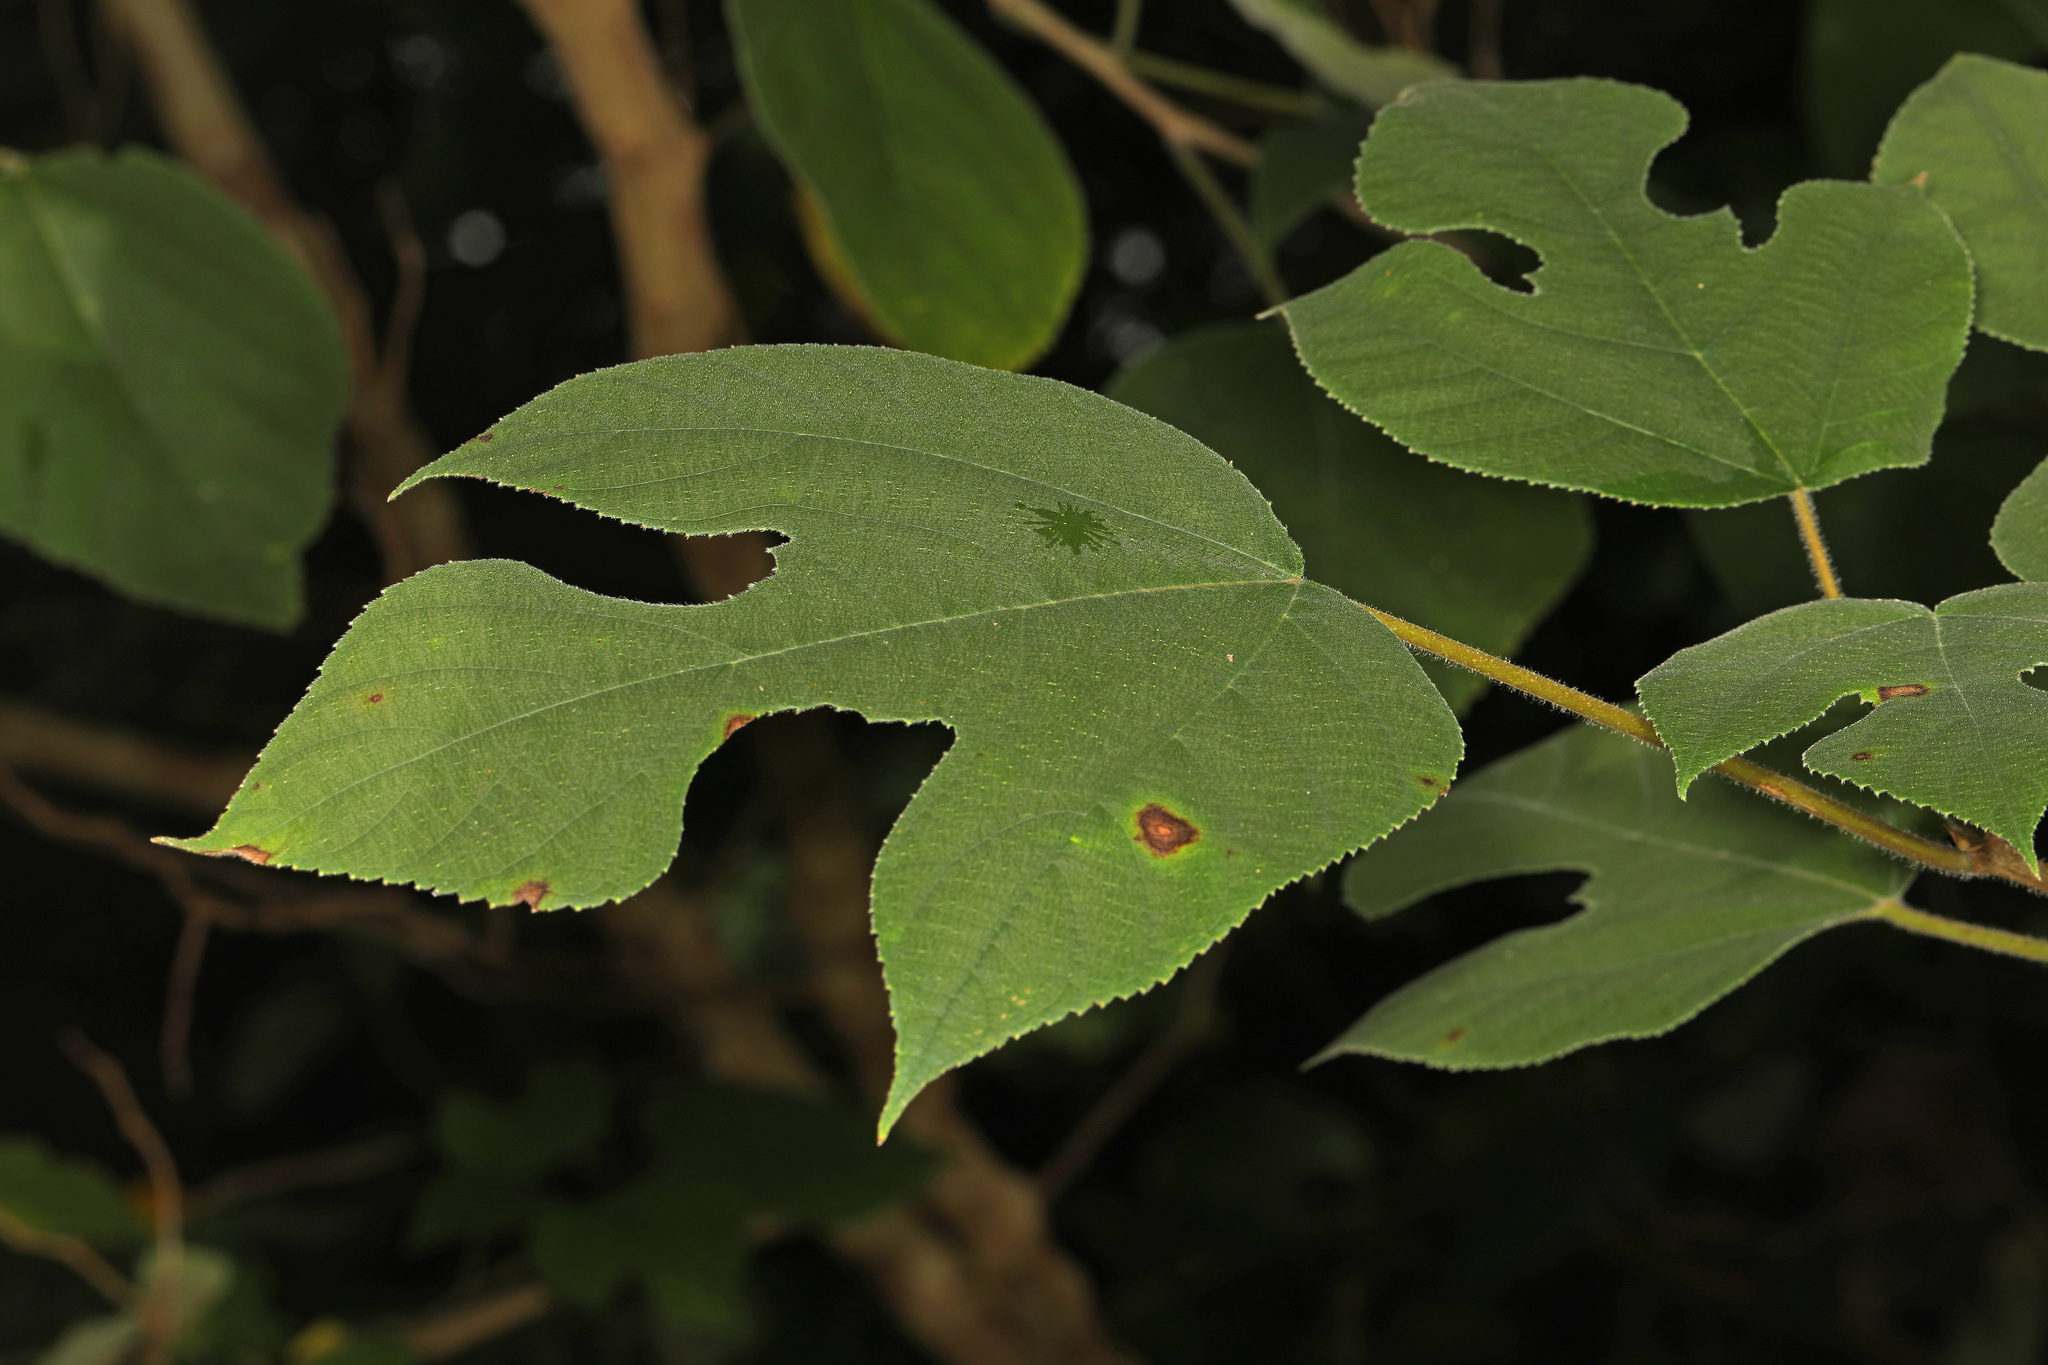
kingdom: Plantae
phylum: Tracheophyta
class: Magnoliopsida
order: Rosales
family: Moraceae
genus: Broussonetia
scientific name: Broussonetia papyrifera
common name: Paper mulberry
